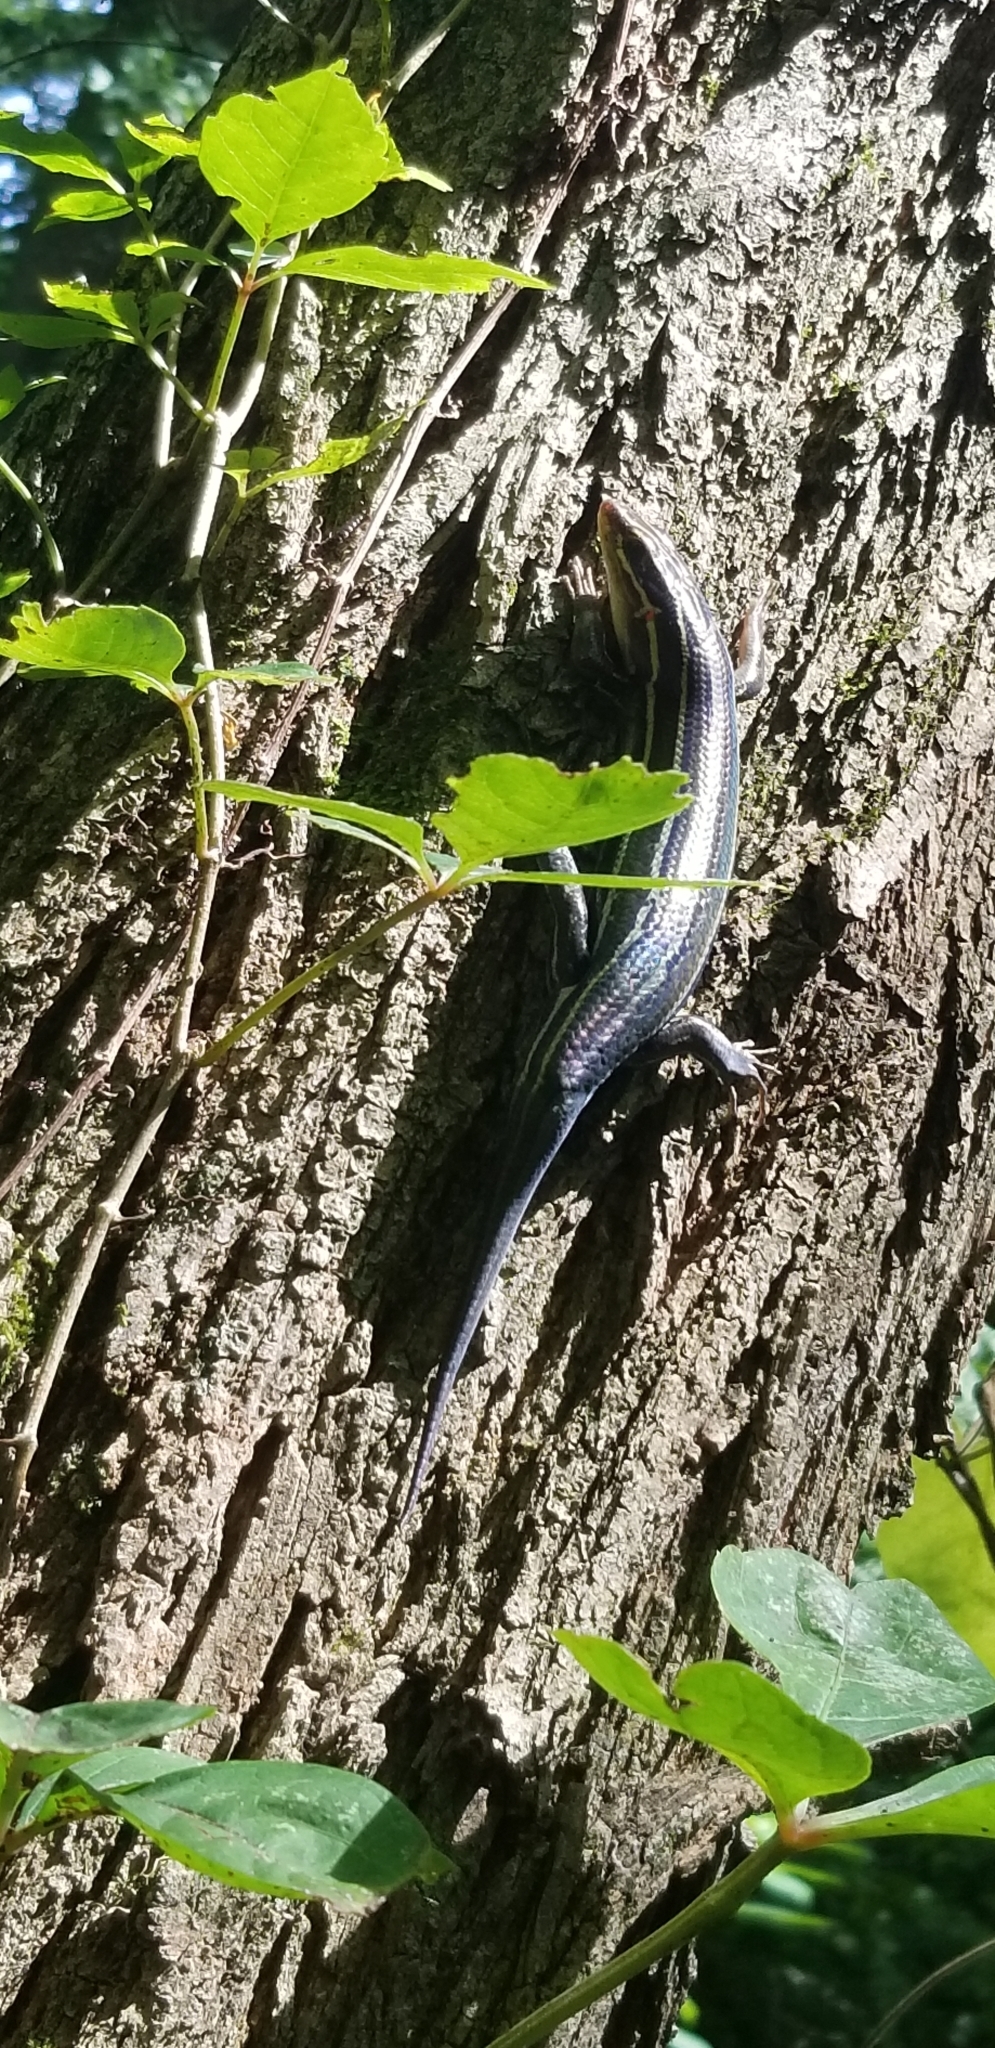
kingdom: Animalia
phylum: Chordata
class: Squamata
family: Scincidae
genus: Plestiodon
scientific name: Plestiodon laticeps
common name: Broadhead skink
